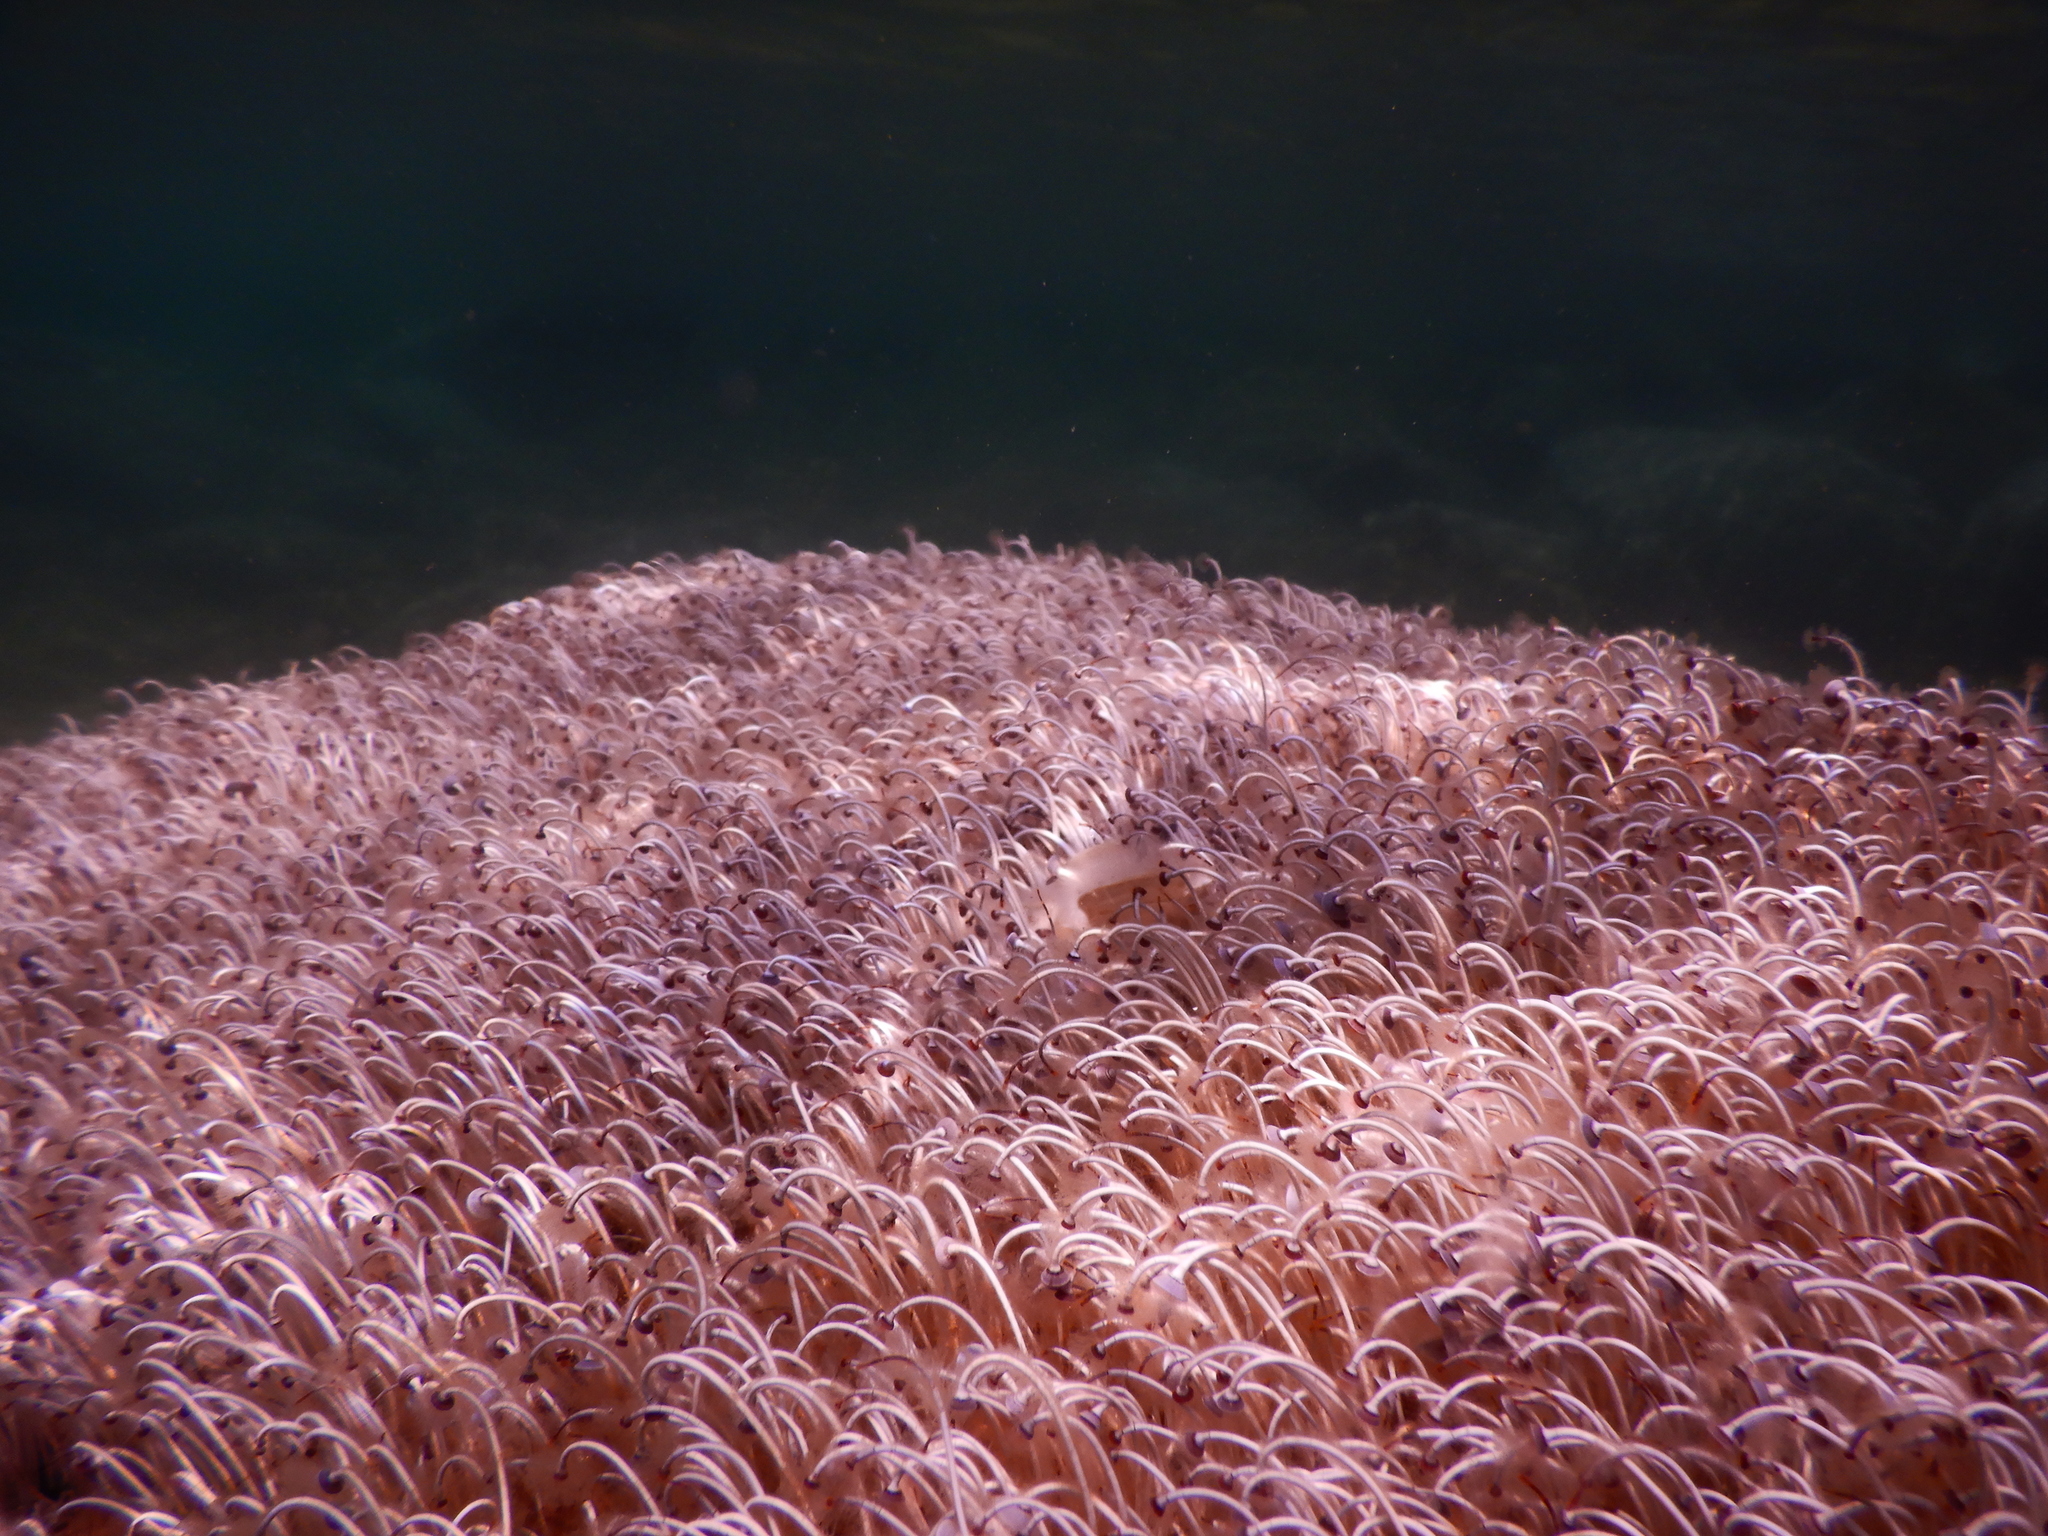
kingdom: Plantae
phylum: Chlorophyta
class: Ulvophyceae
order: Dasycladales
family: Polyphysaceae
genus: Acetabularia
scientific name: Acetabularia acetabulum
